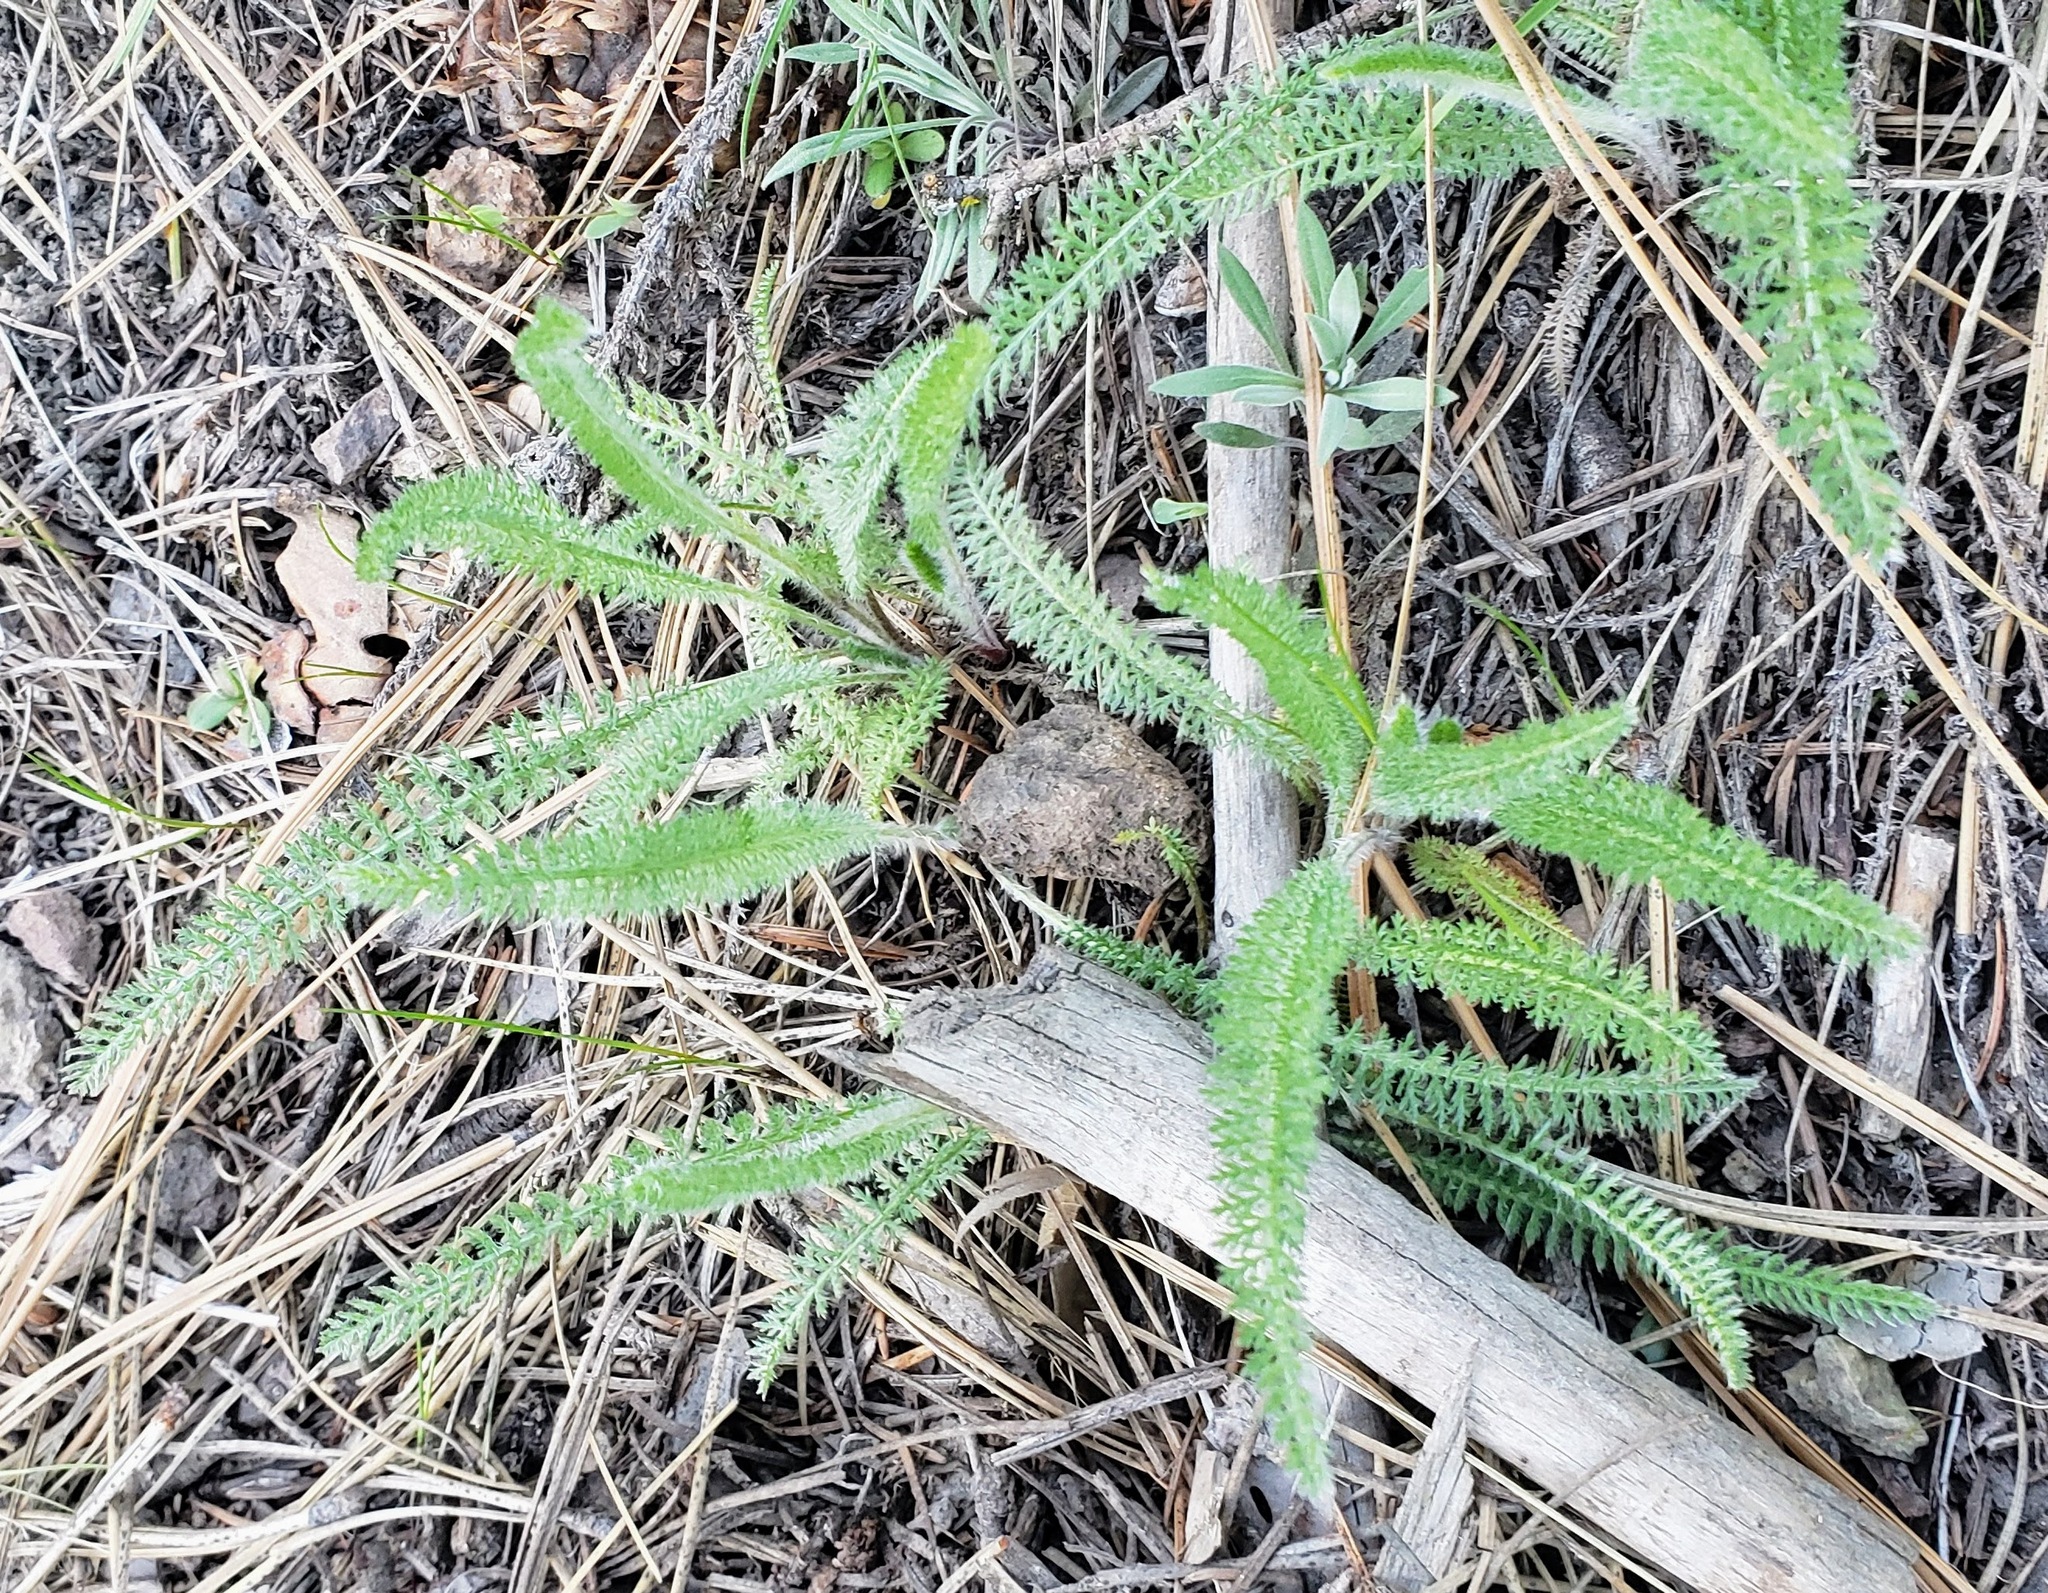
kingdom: Plantae
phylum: Tracheophyta
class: Magnoliopsida
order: Asterales
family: Asteraceae
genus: Achillea
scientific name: Achillea millefolium
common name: Yarrow
